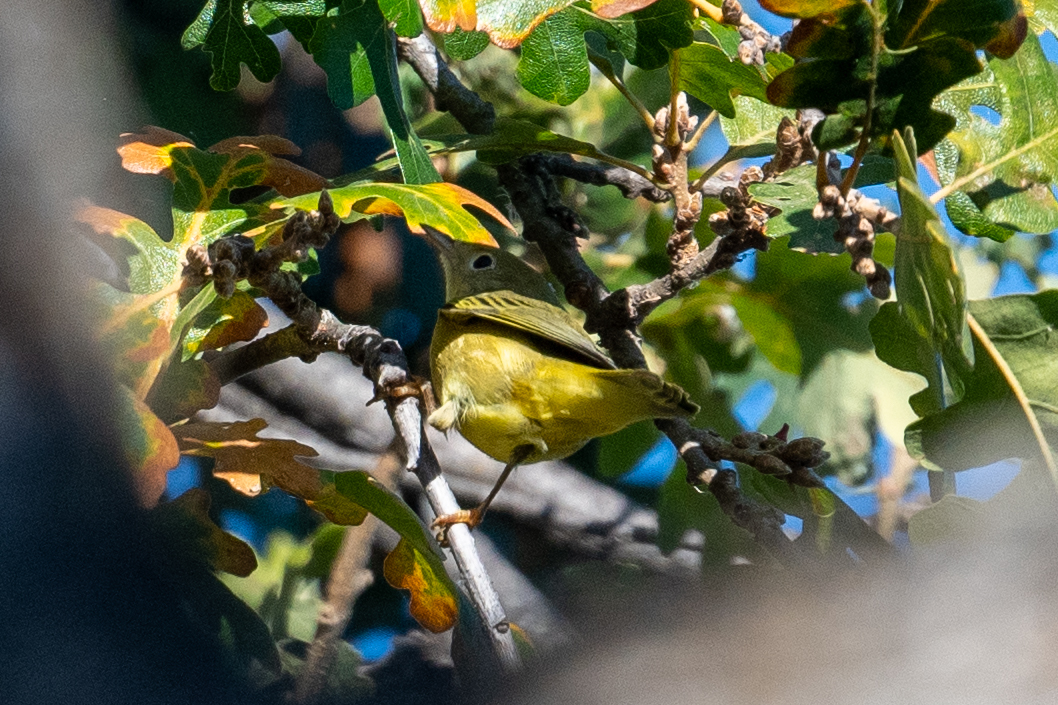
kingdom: Animalia
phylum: Chordata
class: Aves
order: Passeriformes
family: Parulidae
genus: Setophaga
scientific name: Setophaga petechia
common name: Yellow warbler
